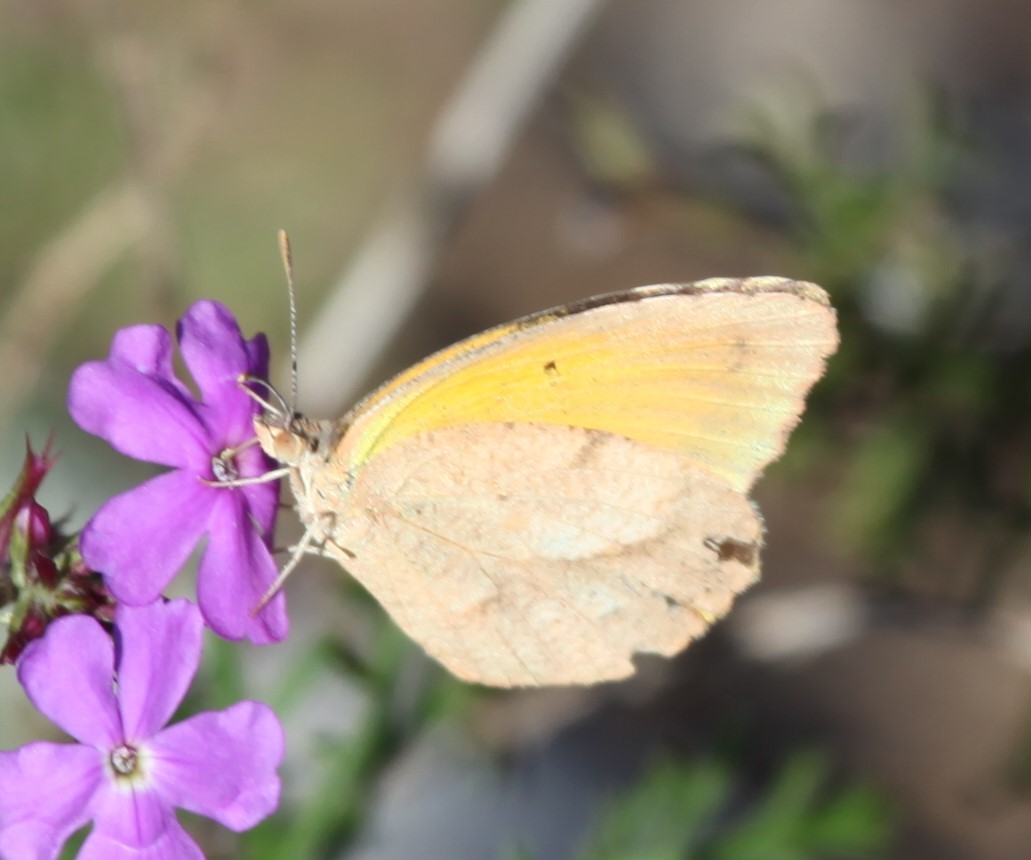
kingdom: Animalia
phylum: Arthropoda
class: Insecta
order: Lepidoptera
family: Pieridae
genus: Abaeis
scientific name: Abaeis nicippe
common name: Sleepy orange
